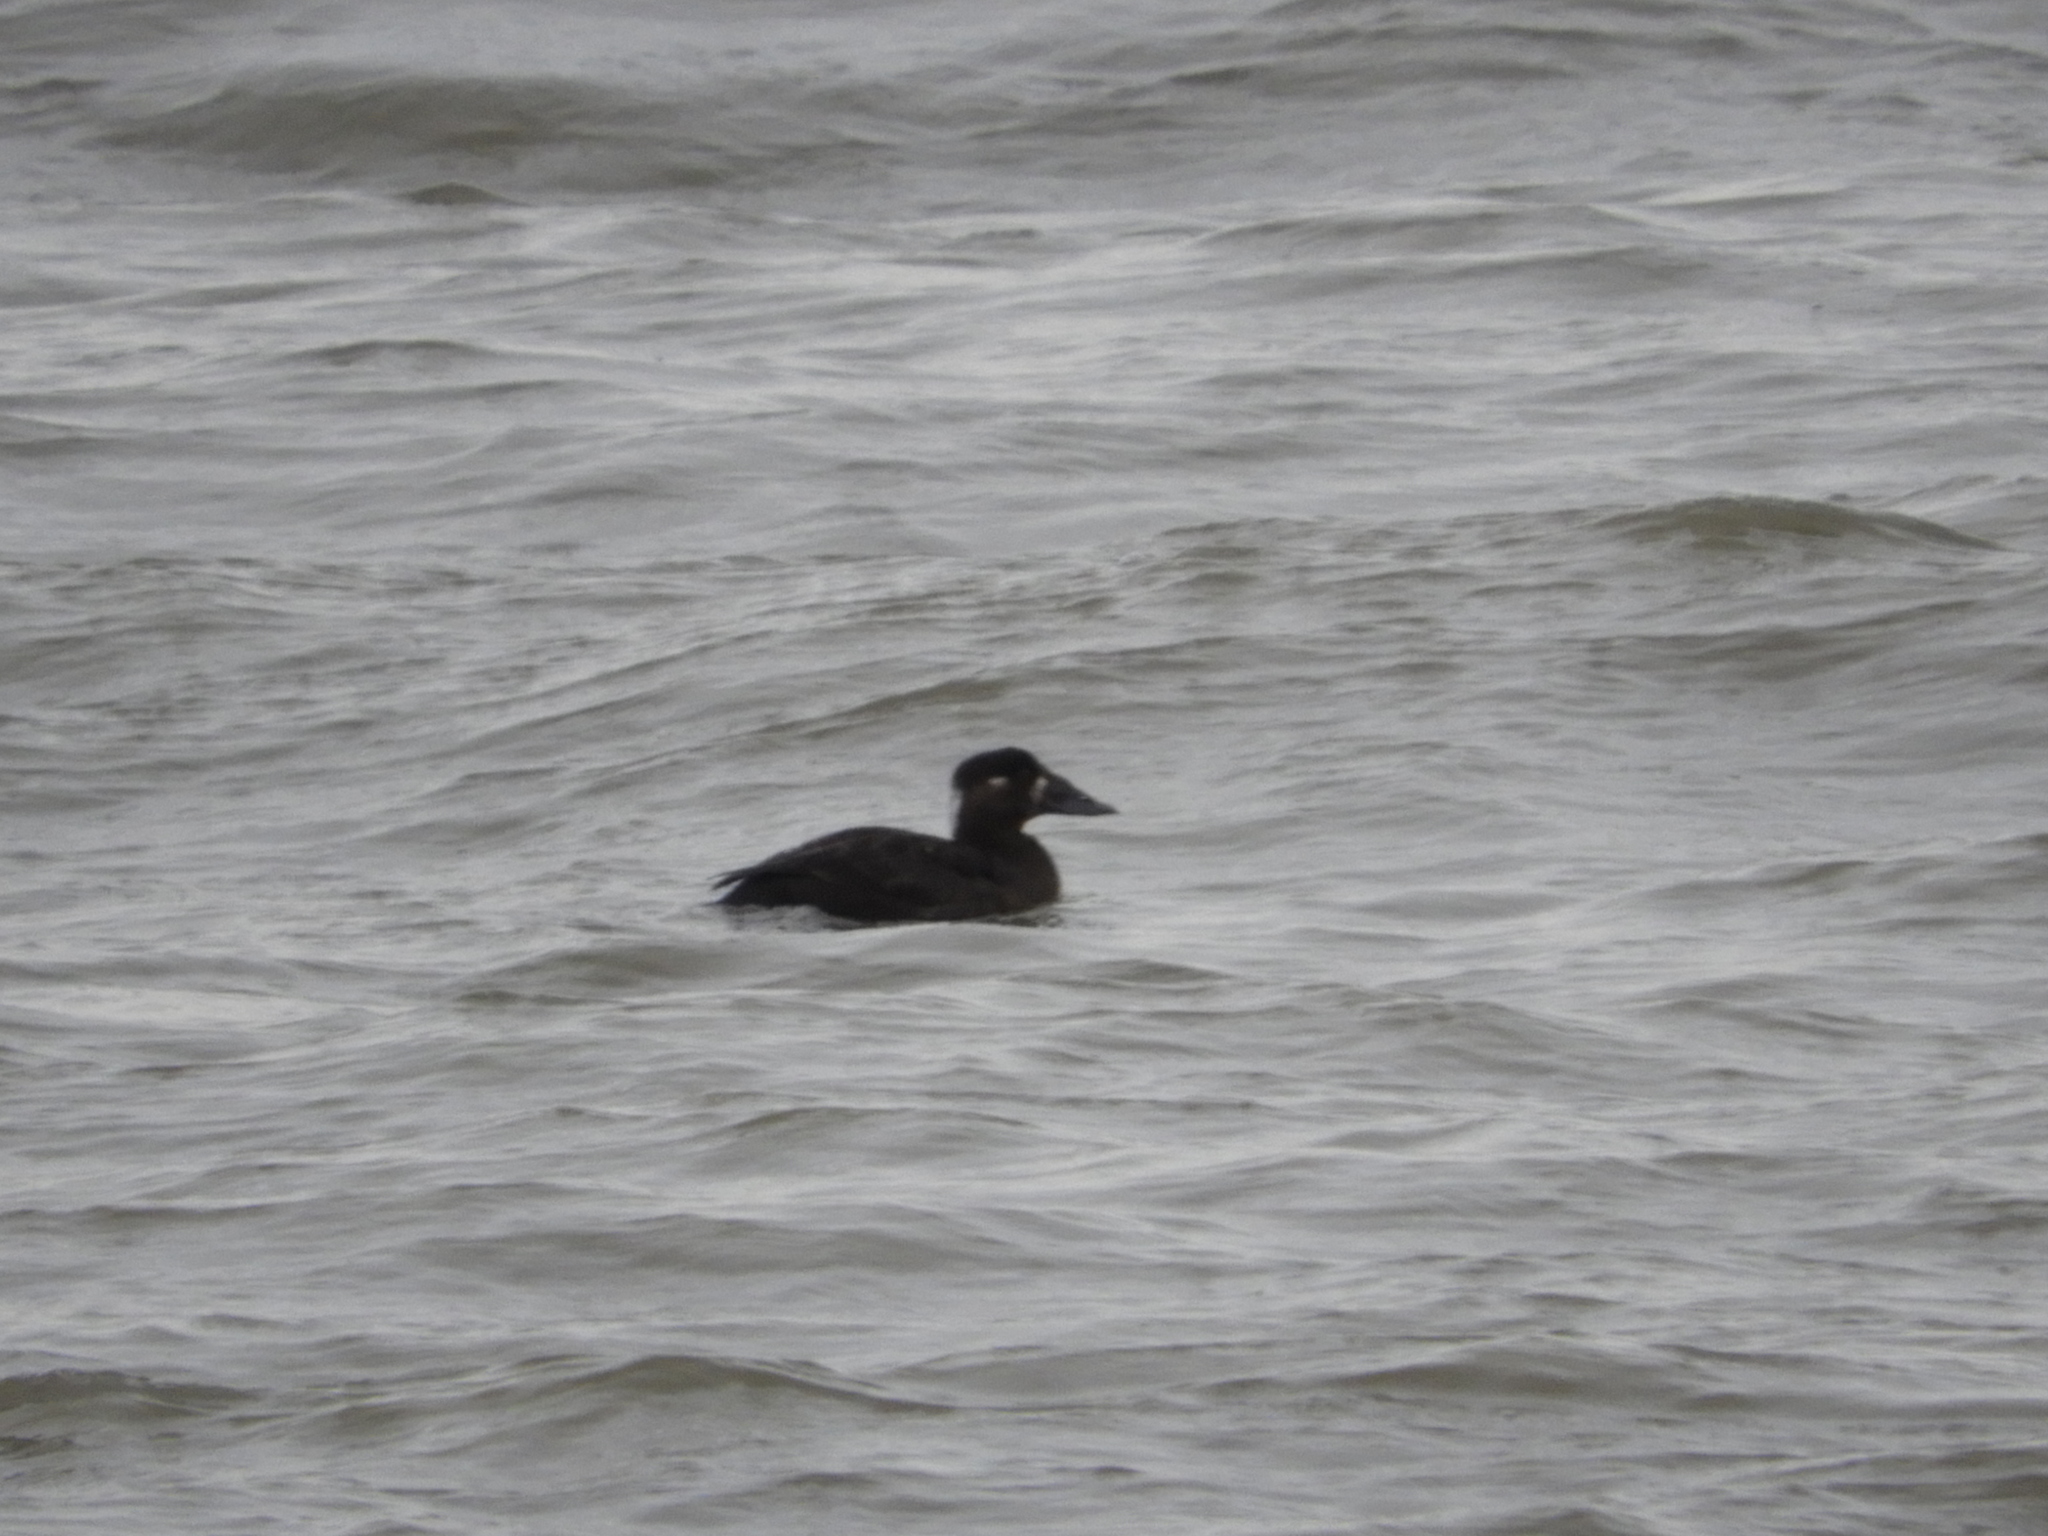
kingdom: Animalia
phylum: Chordata
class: Aves
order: Anseriformes
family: Anatidae
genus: Melanitta
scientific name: Melanitta perspicillata
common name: Surf scoter
